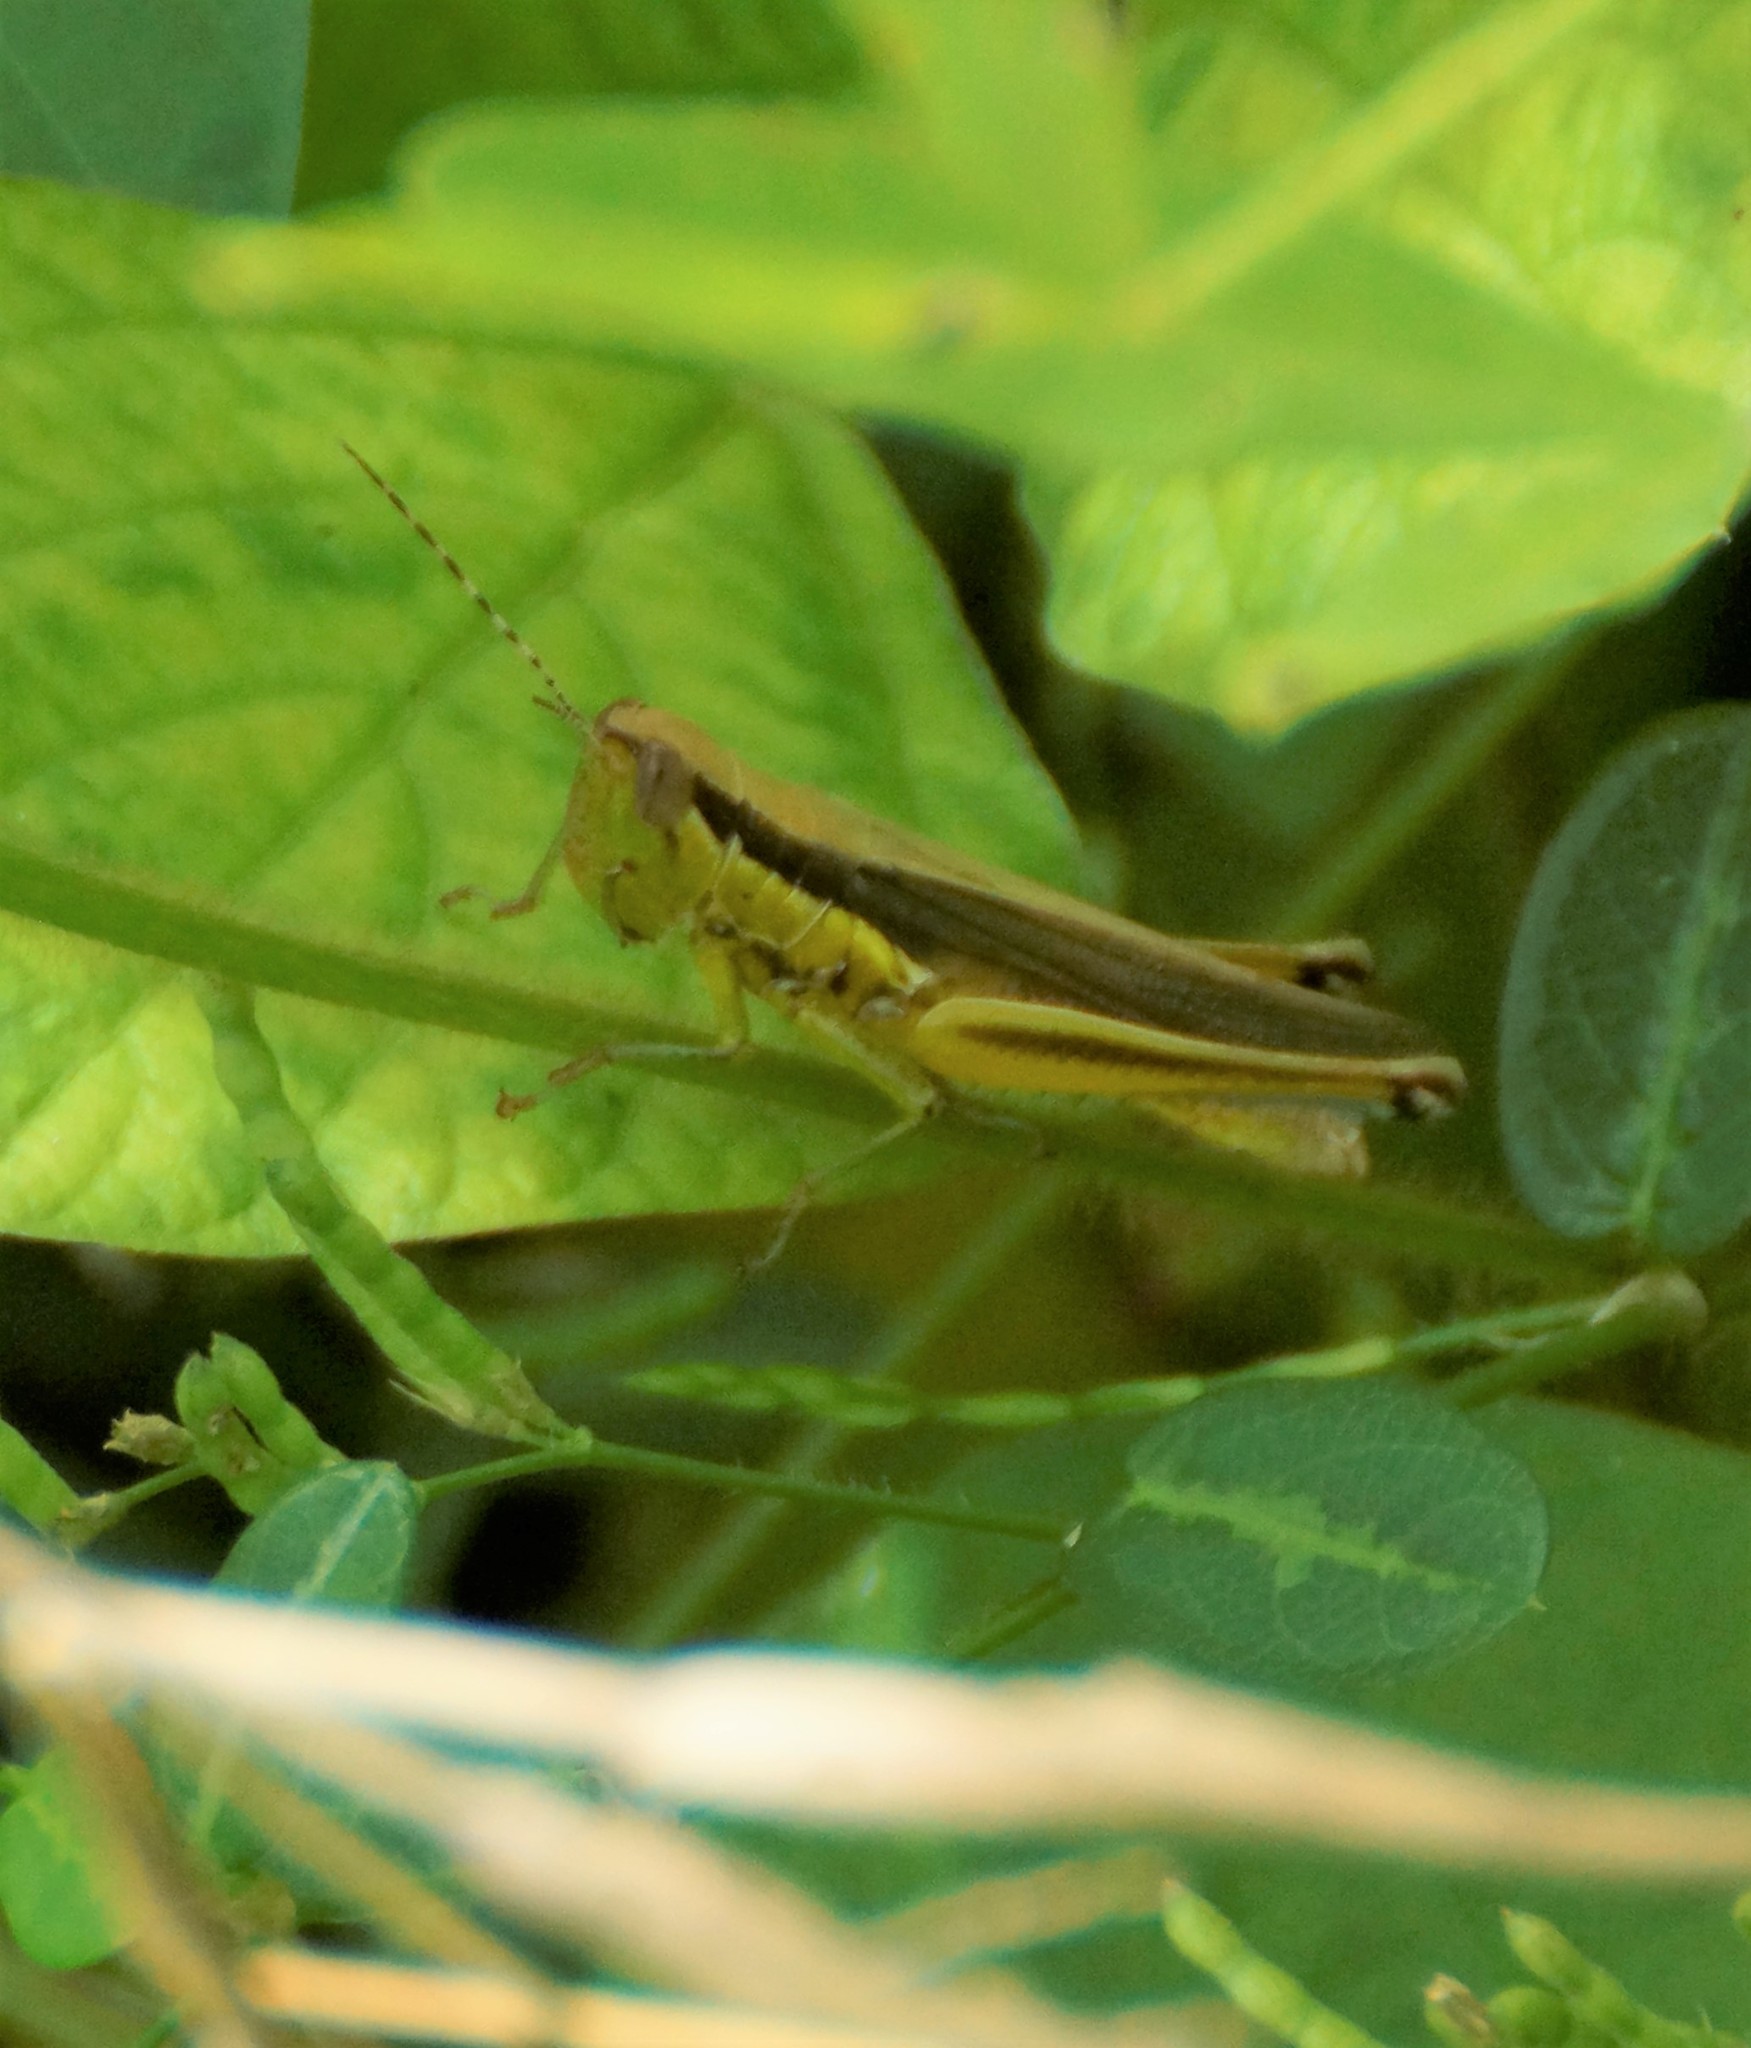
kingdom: Animalia
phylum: Arthropoda
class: Insecta
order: Orthoptera
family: Acrididae
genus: Bermius
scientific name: Bermius curvicercus
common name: Sorghum bermius
